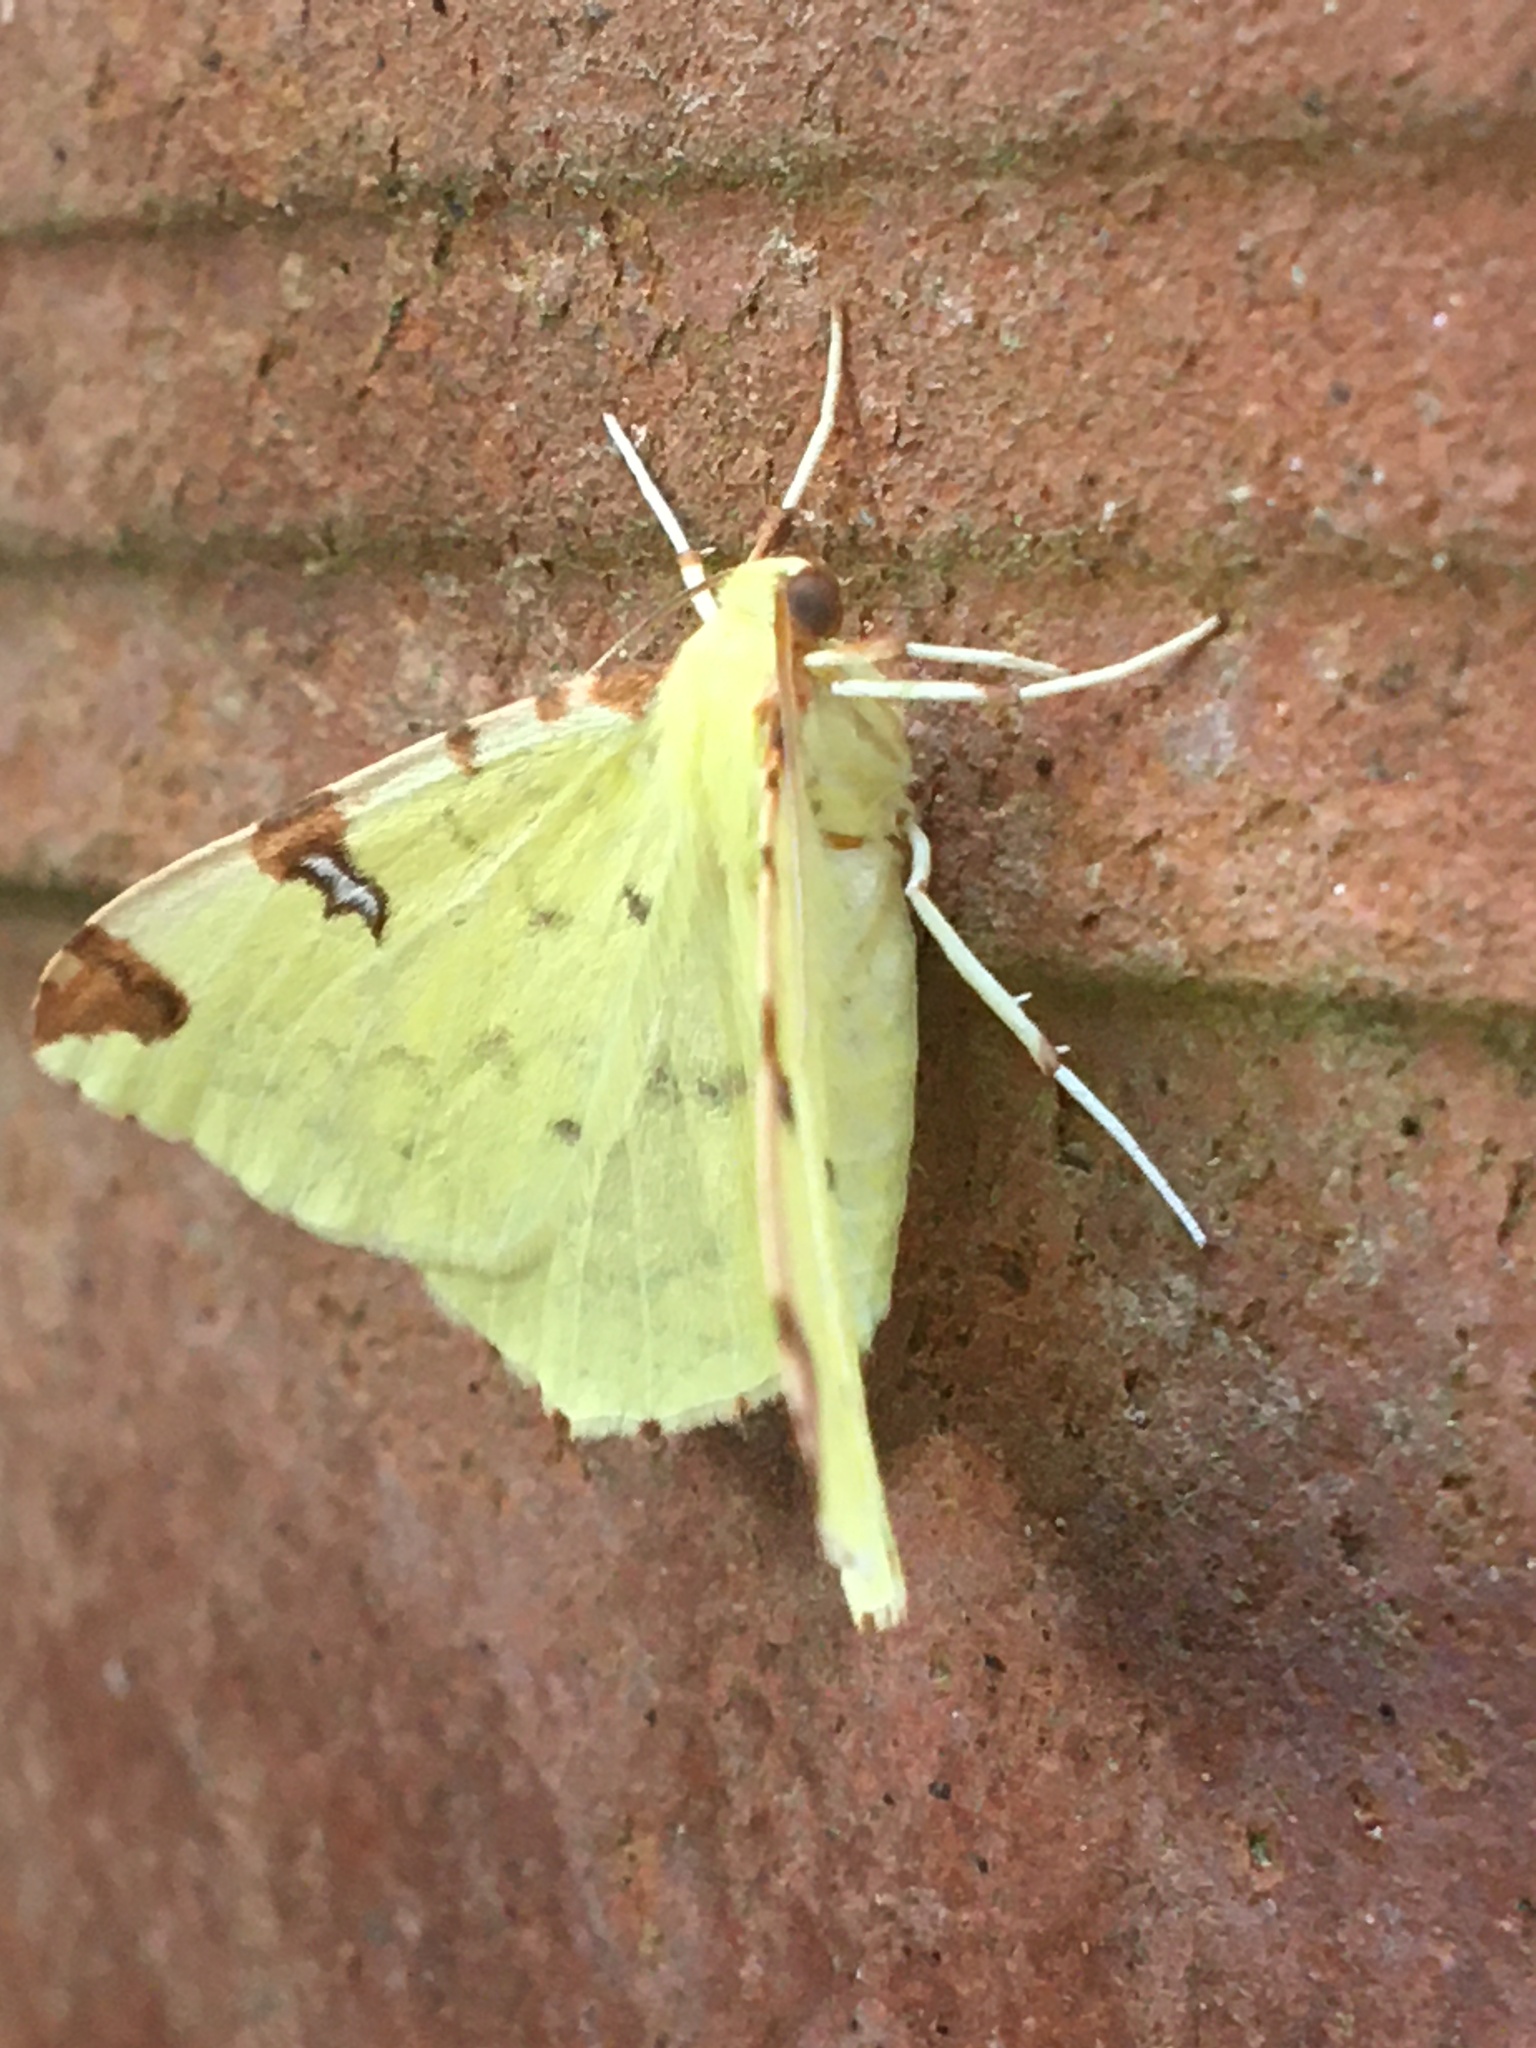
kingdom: Animalia
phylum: Arthropoda
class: Insecta
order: Lepidoptera
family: Geometridae
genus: Opisthograptis
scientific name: Opisthograptis luteolata
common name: Brimstone moth
